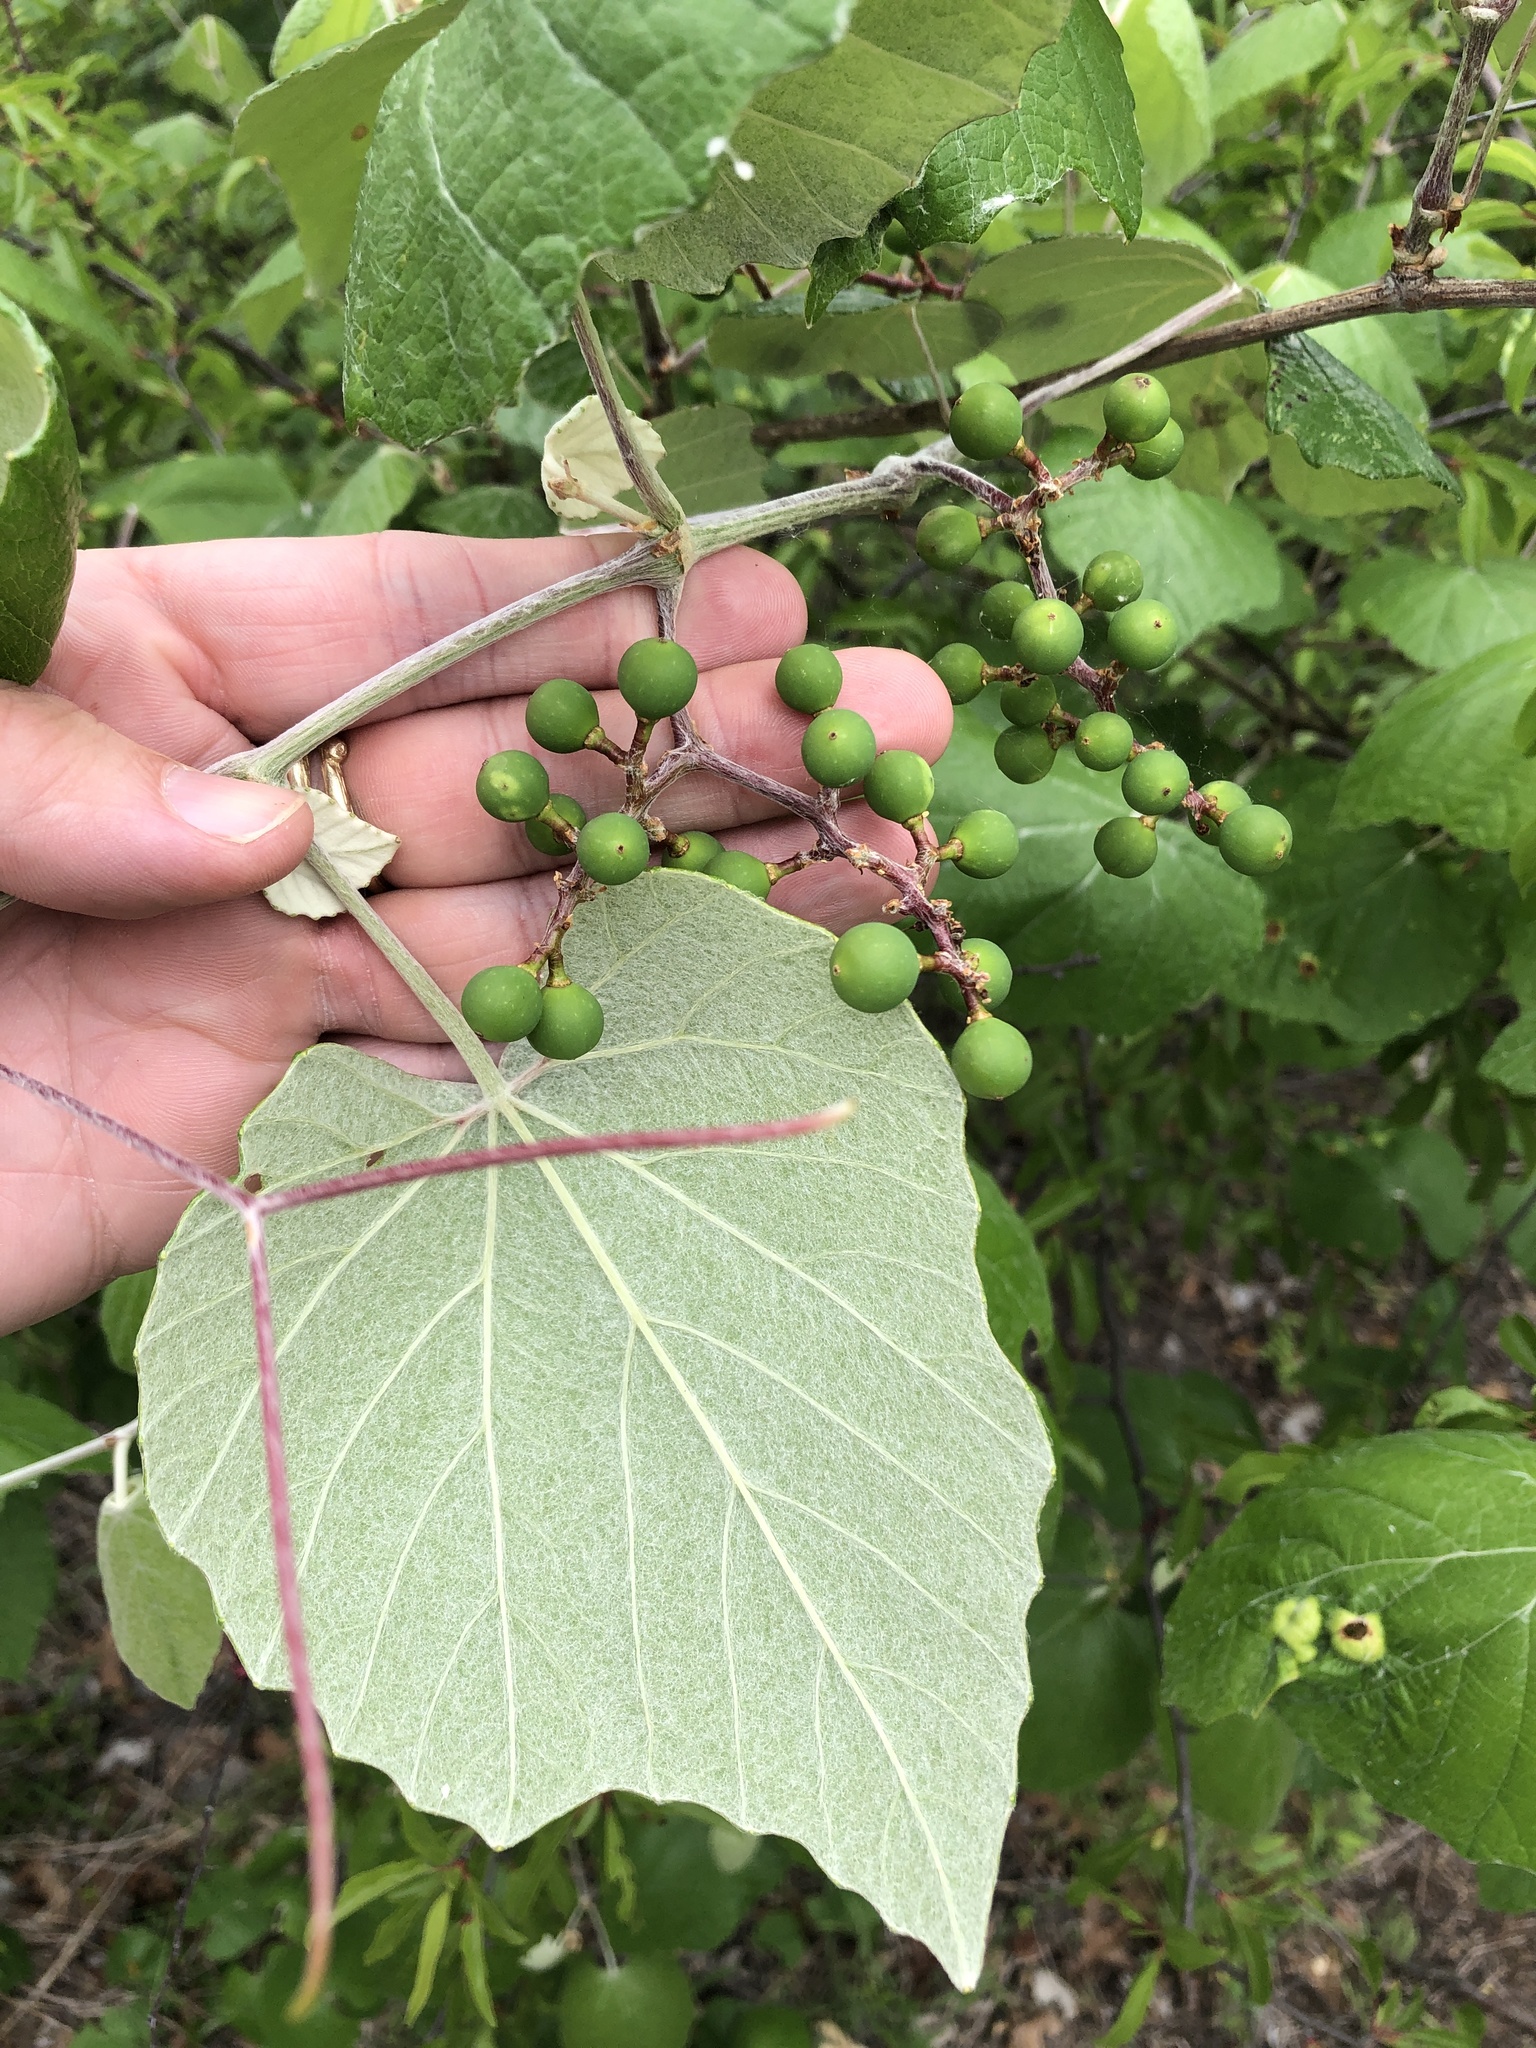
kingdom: Plantae
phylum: Tracheophyta
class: Magnoliopsida
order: Vitales
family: Vitaceae
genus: Vitis
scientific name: Vitis mustangensis
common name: Mustang grape
